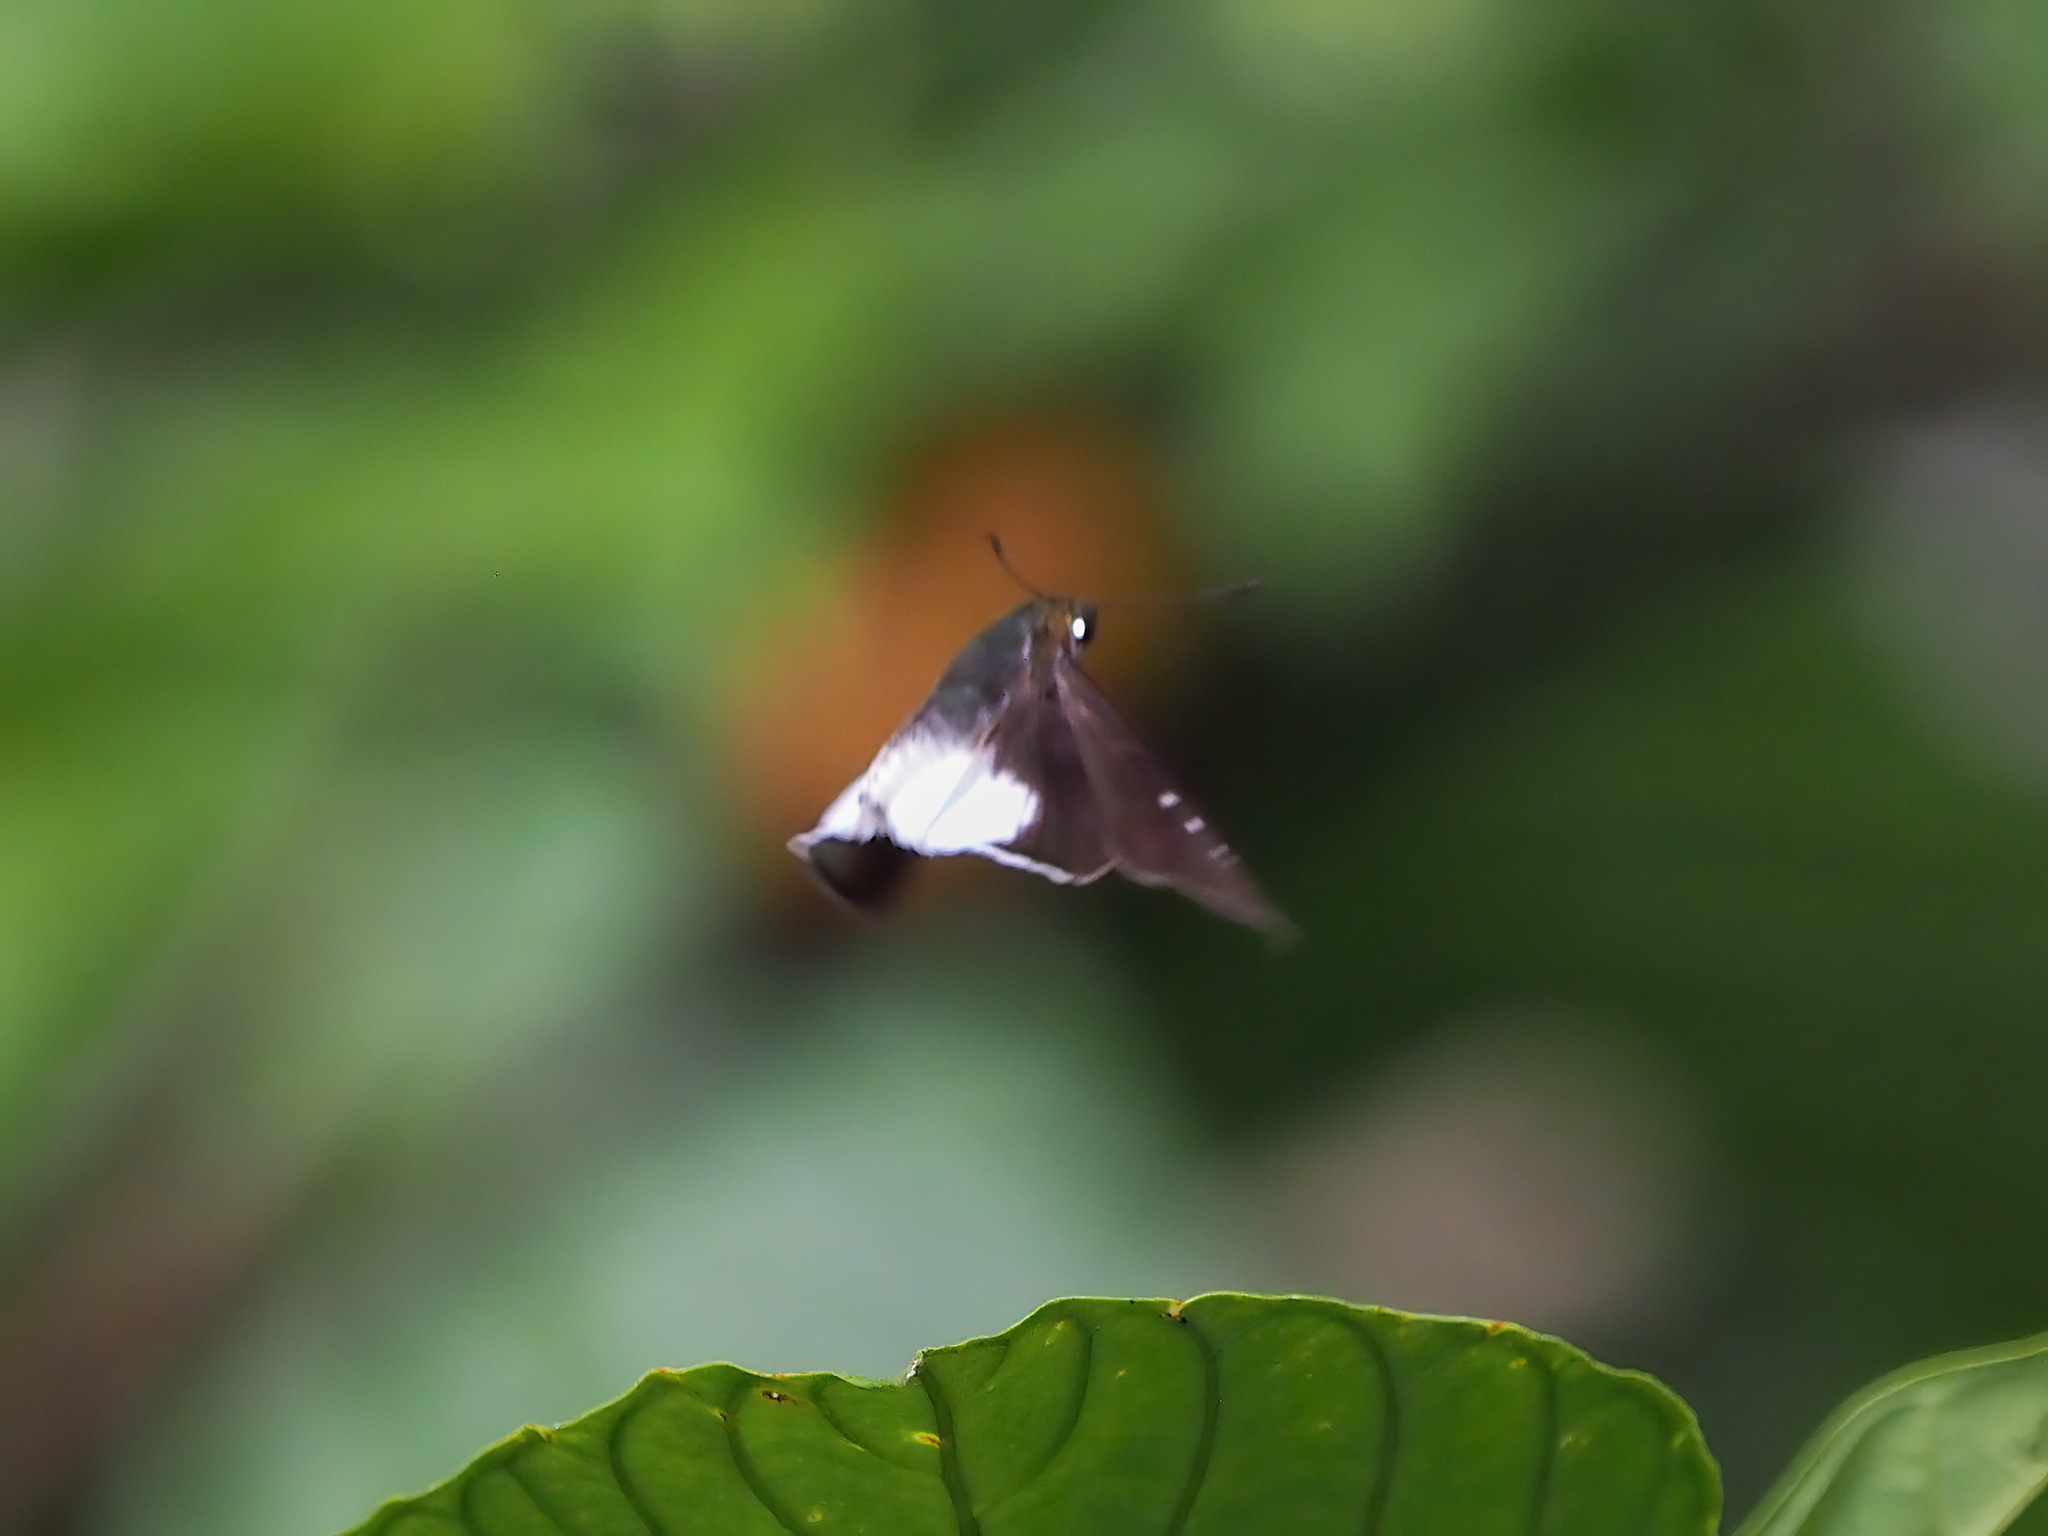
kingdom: Animalia
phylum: Arthropoda
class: Insecta
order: Lepidoptera
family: Hesperiidae
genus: Iton
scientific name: Iton semamora
